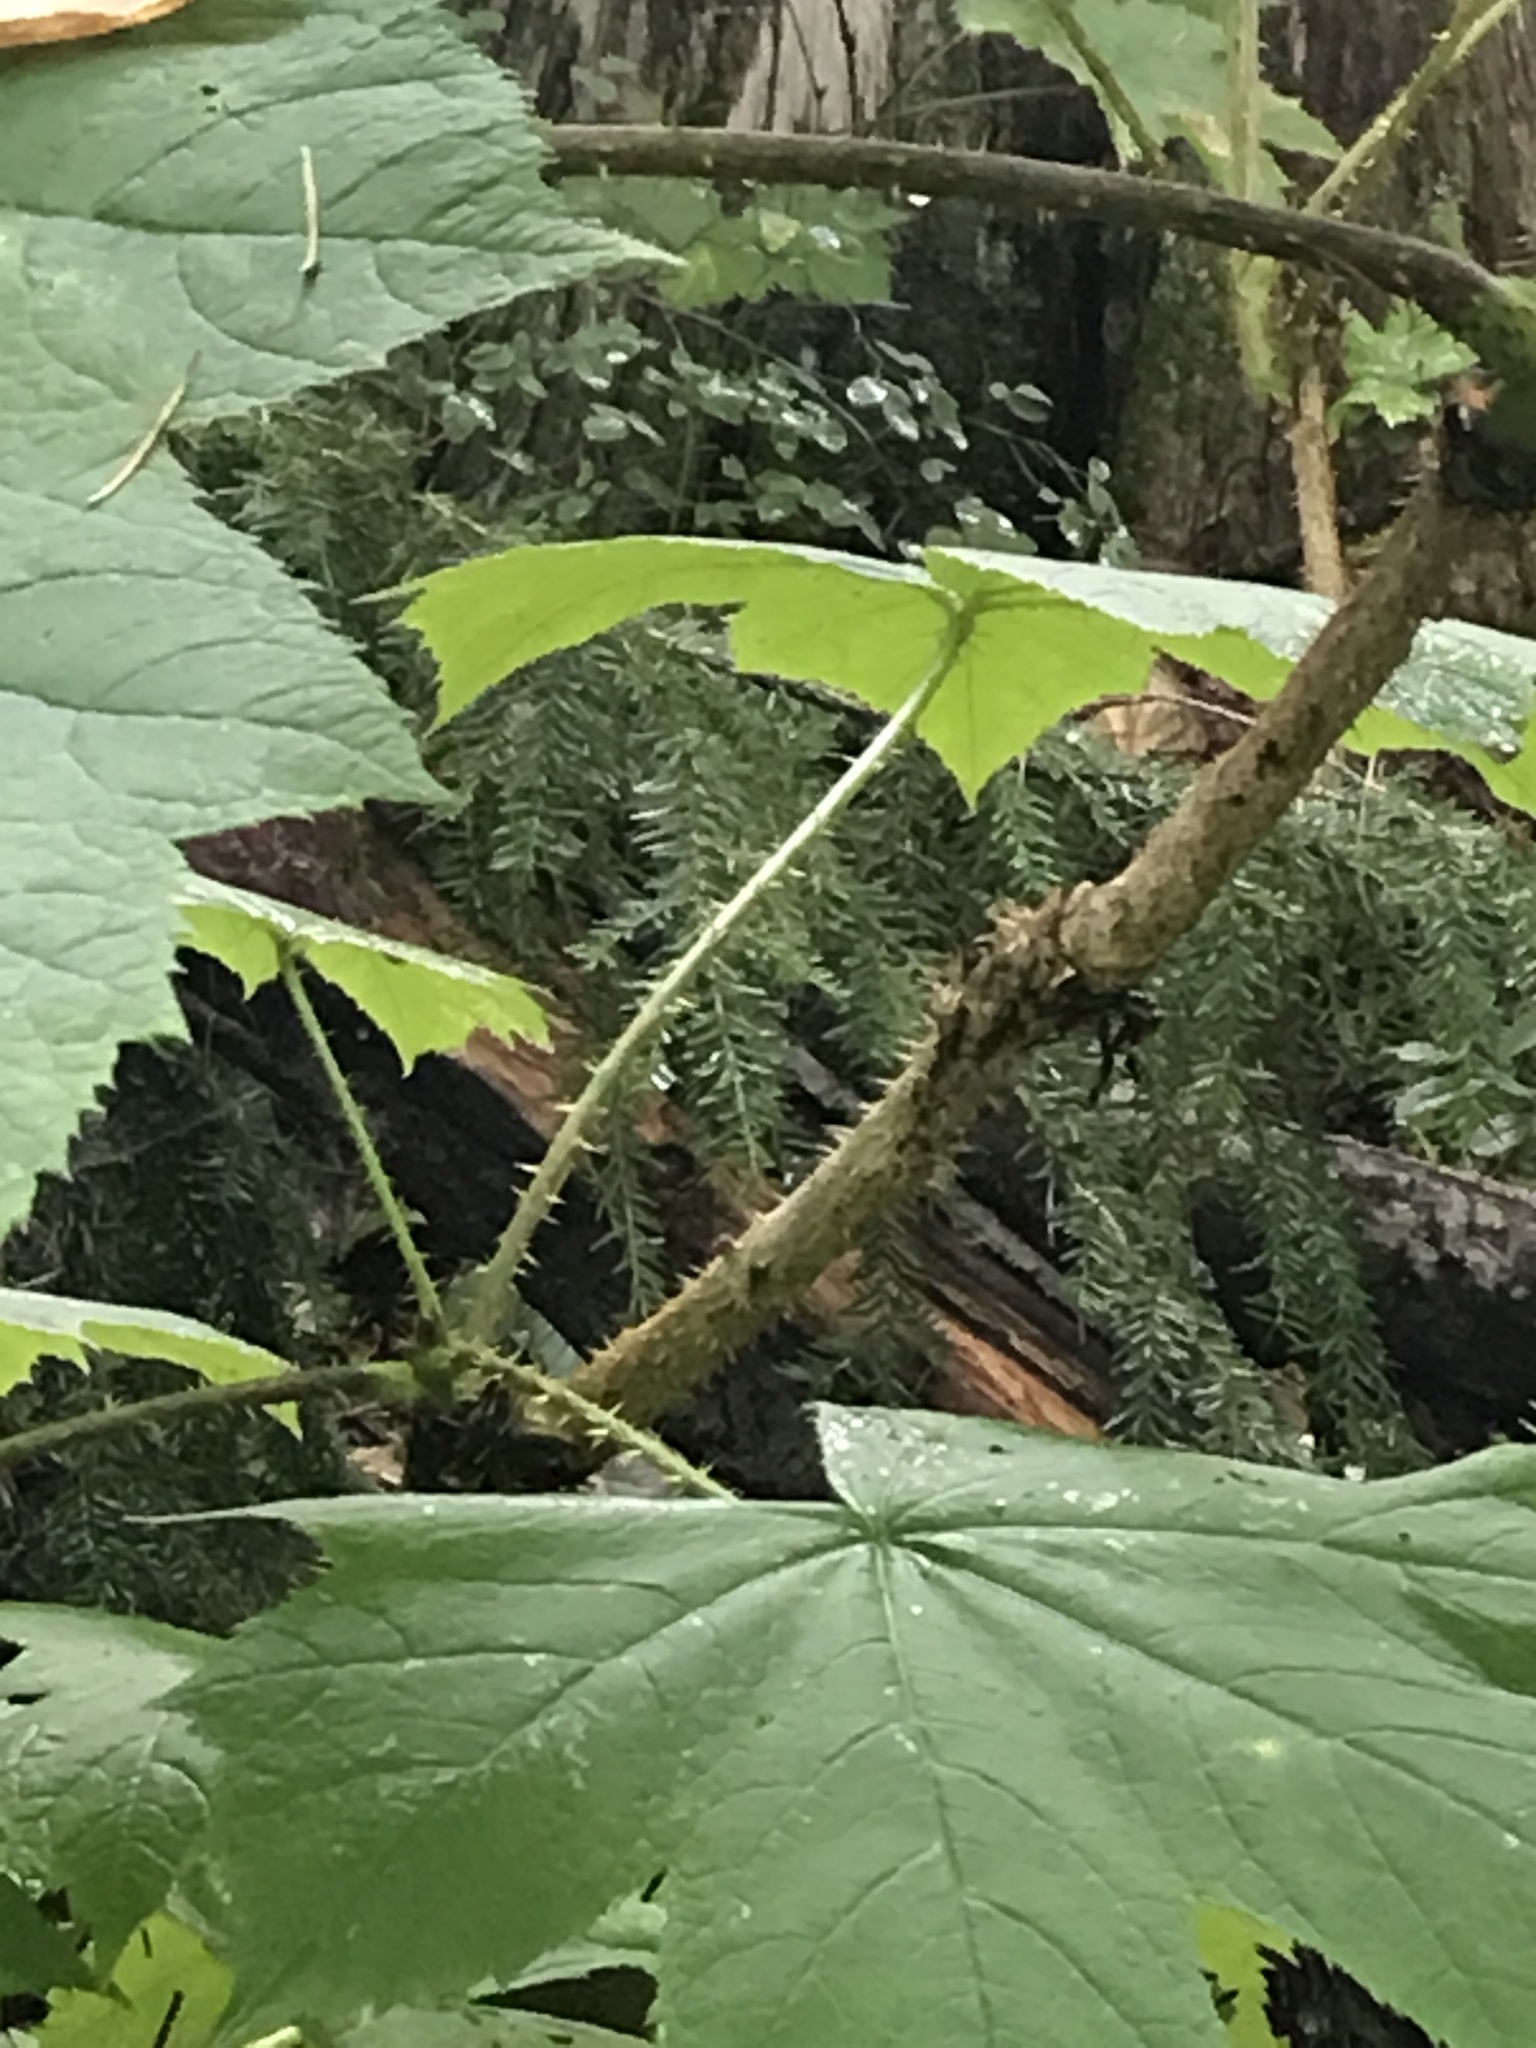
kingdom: Plantae
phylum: Tracheophyta
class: Magnoliopsida
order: Apiales
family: Araliaceae
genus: Oplopanax
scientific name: Oplopanax horridus
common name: Devil's walking-stick
